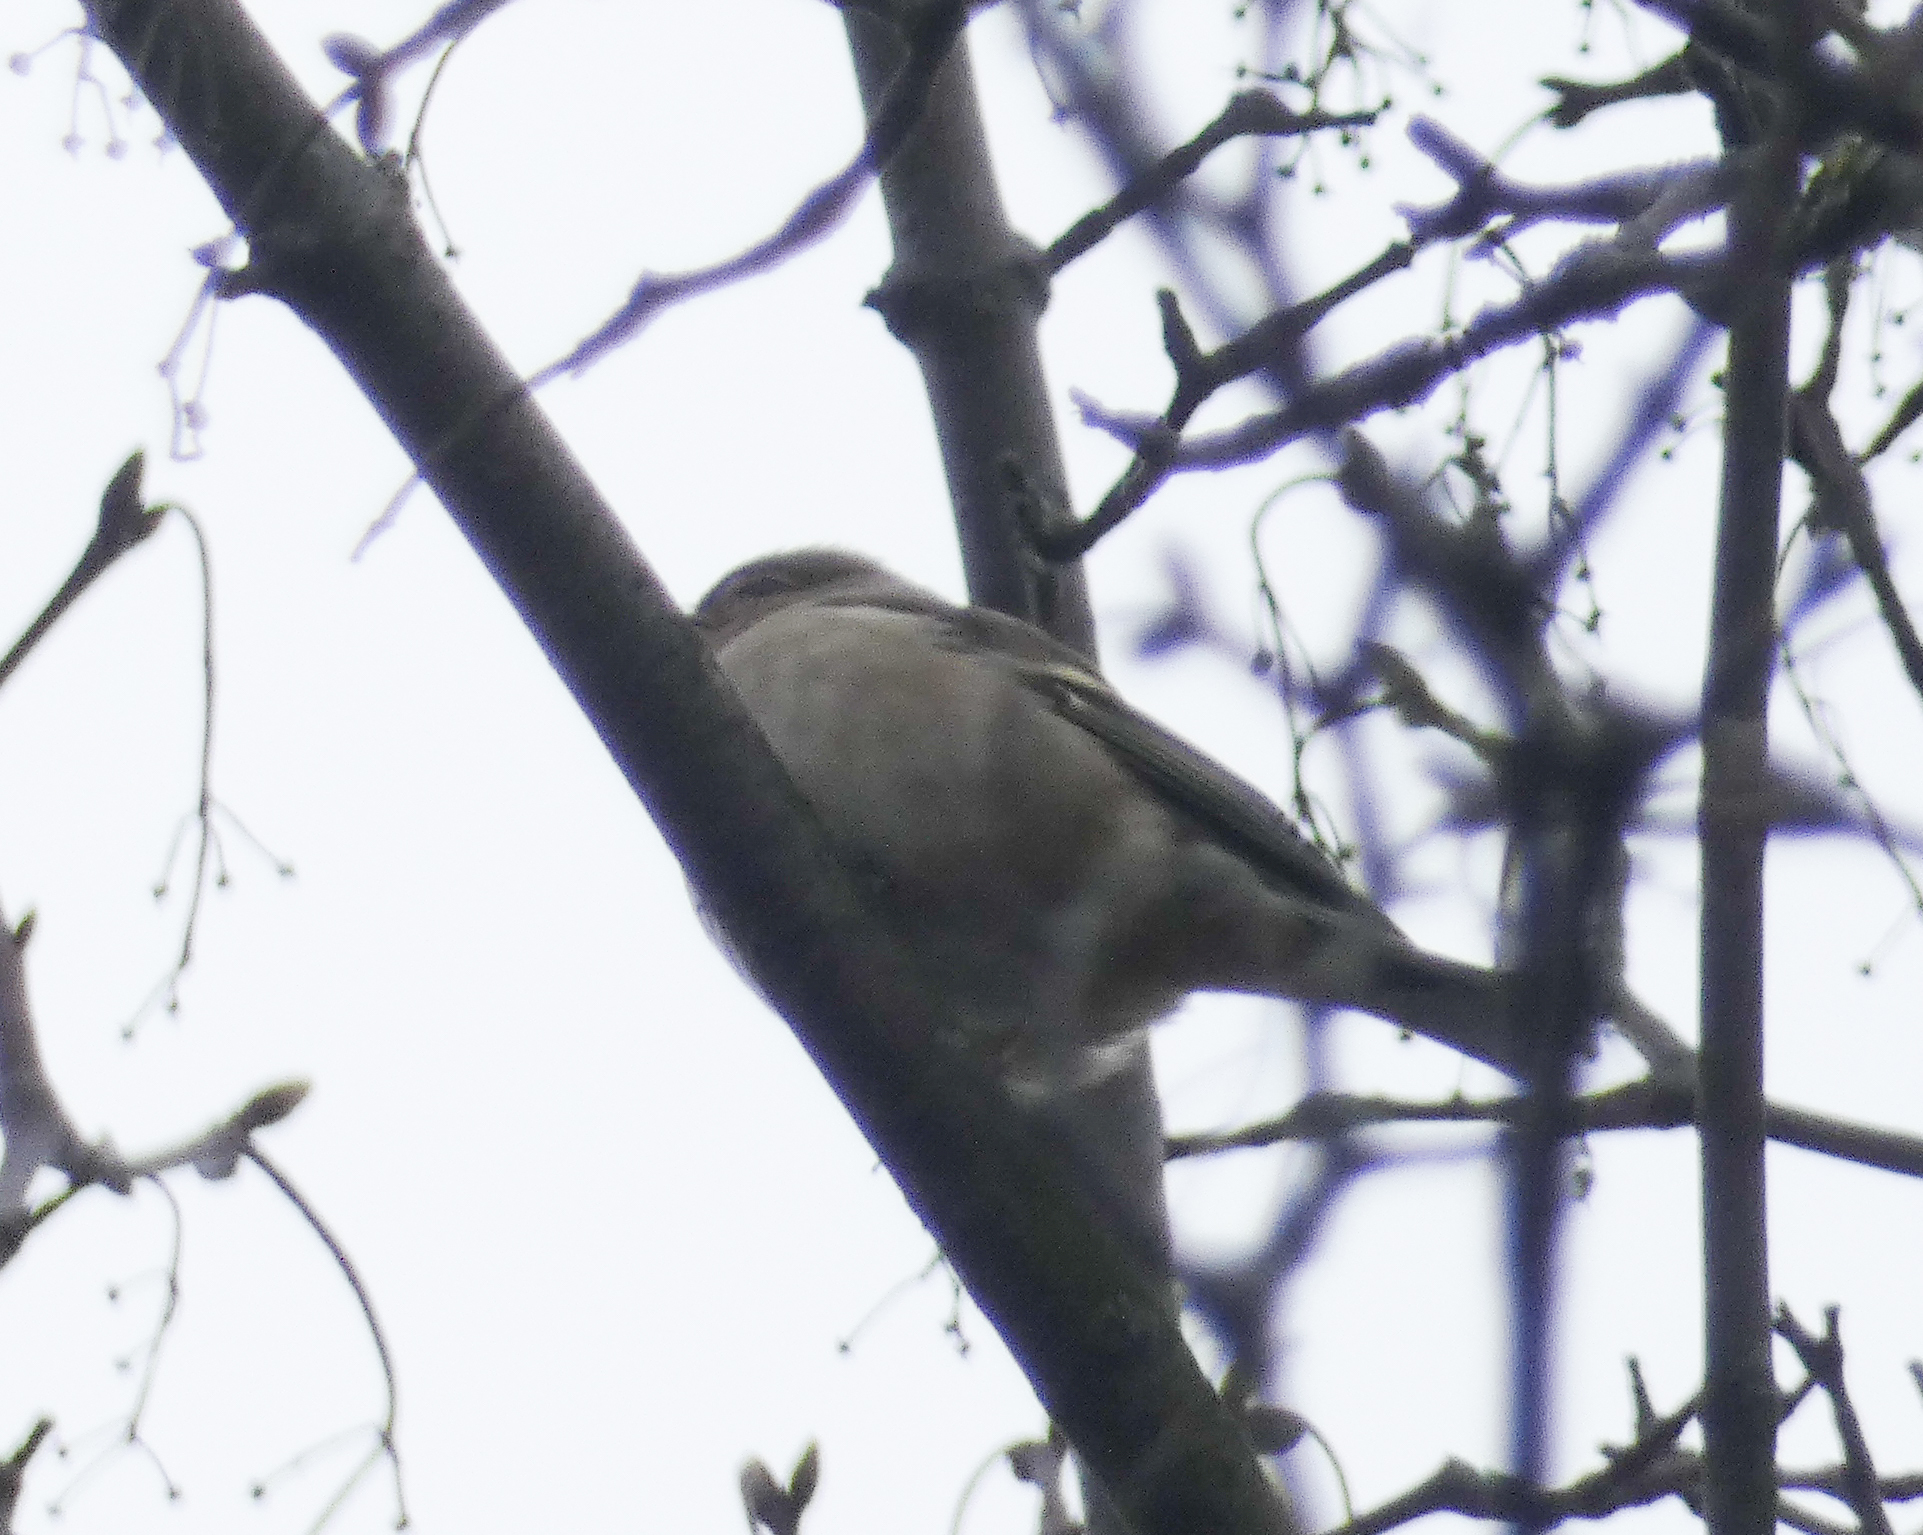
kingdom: Animalia
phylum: Chordata
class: Aves
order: Passeriformes
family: Fringillidae
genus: Fringilla
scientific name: Fringilla coelebs
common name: Common chaffinch
